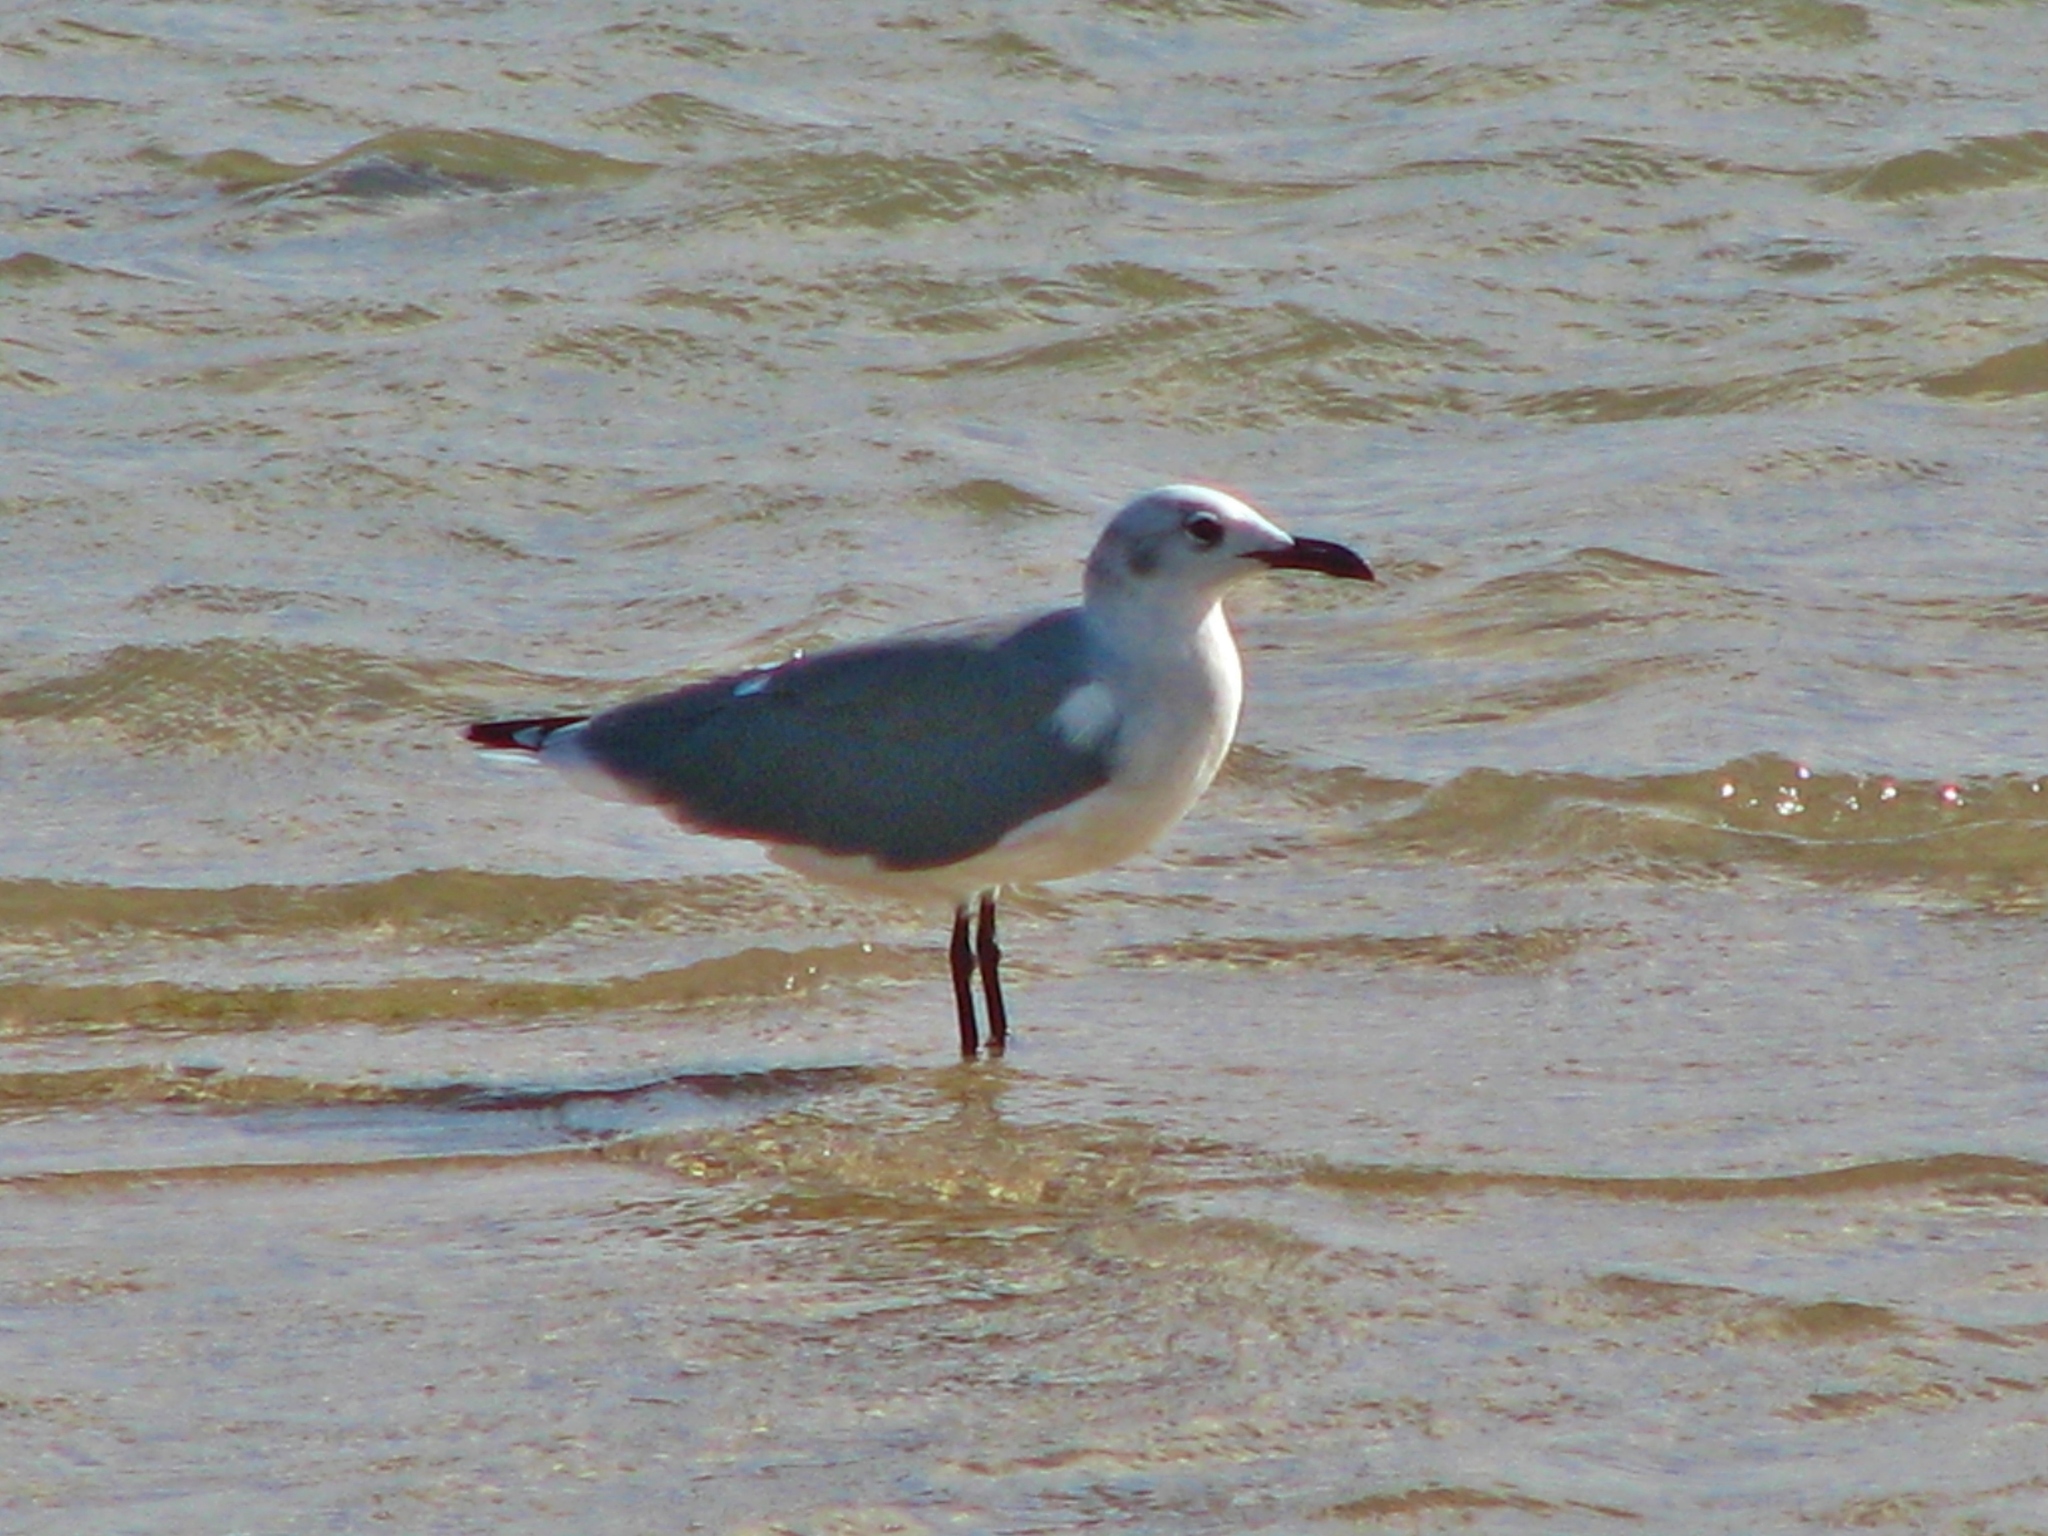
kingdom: Animalia
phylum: Chordata
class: Aves
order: Charadriiformes
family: Laridae
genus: Leucophaeus
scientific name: Leucophaeus atricilla
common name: Laughing gull
